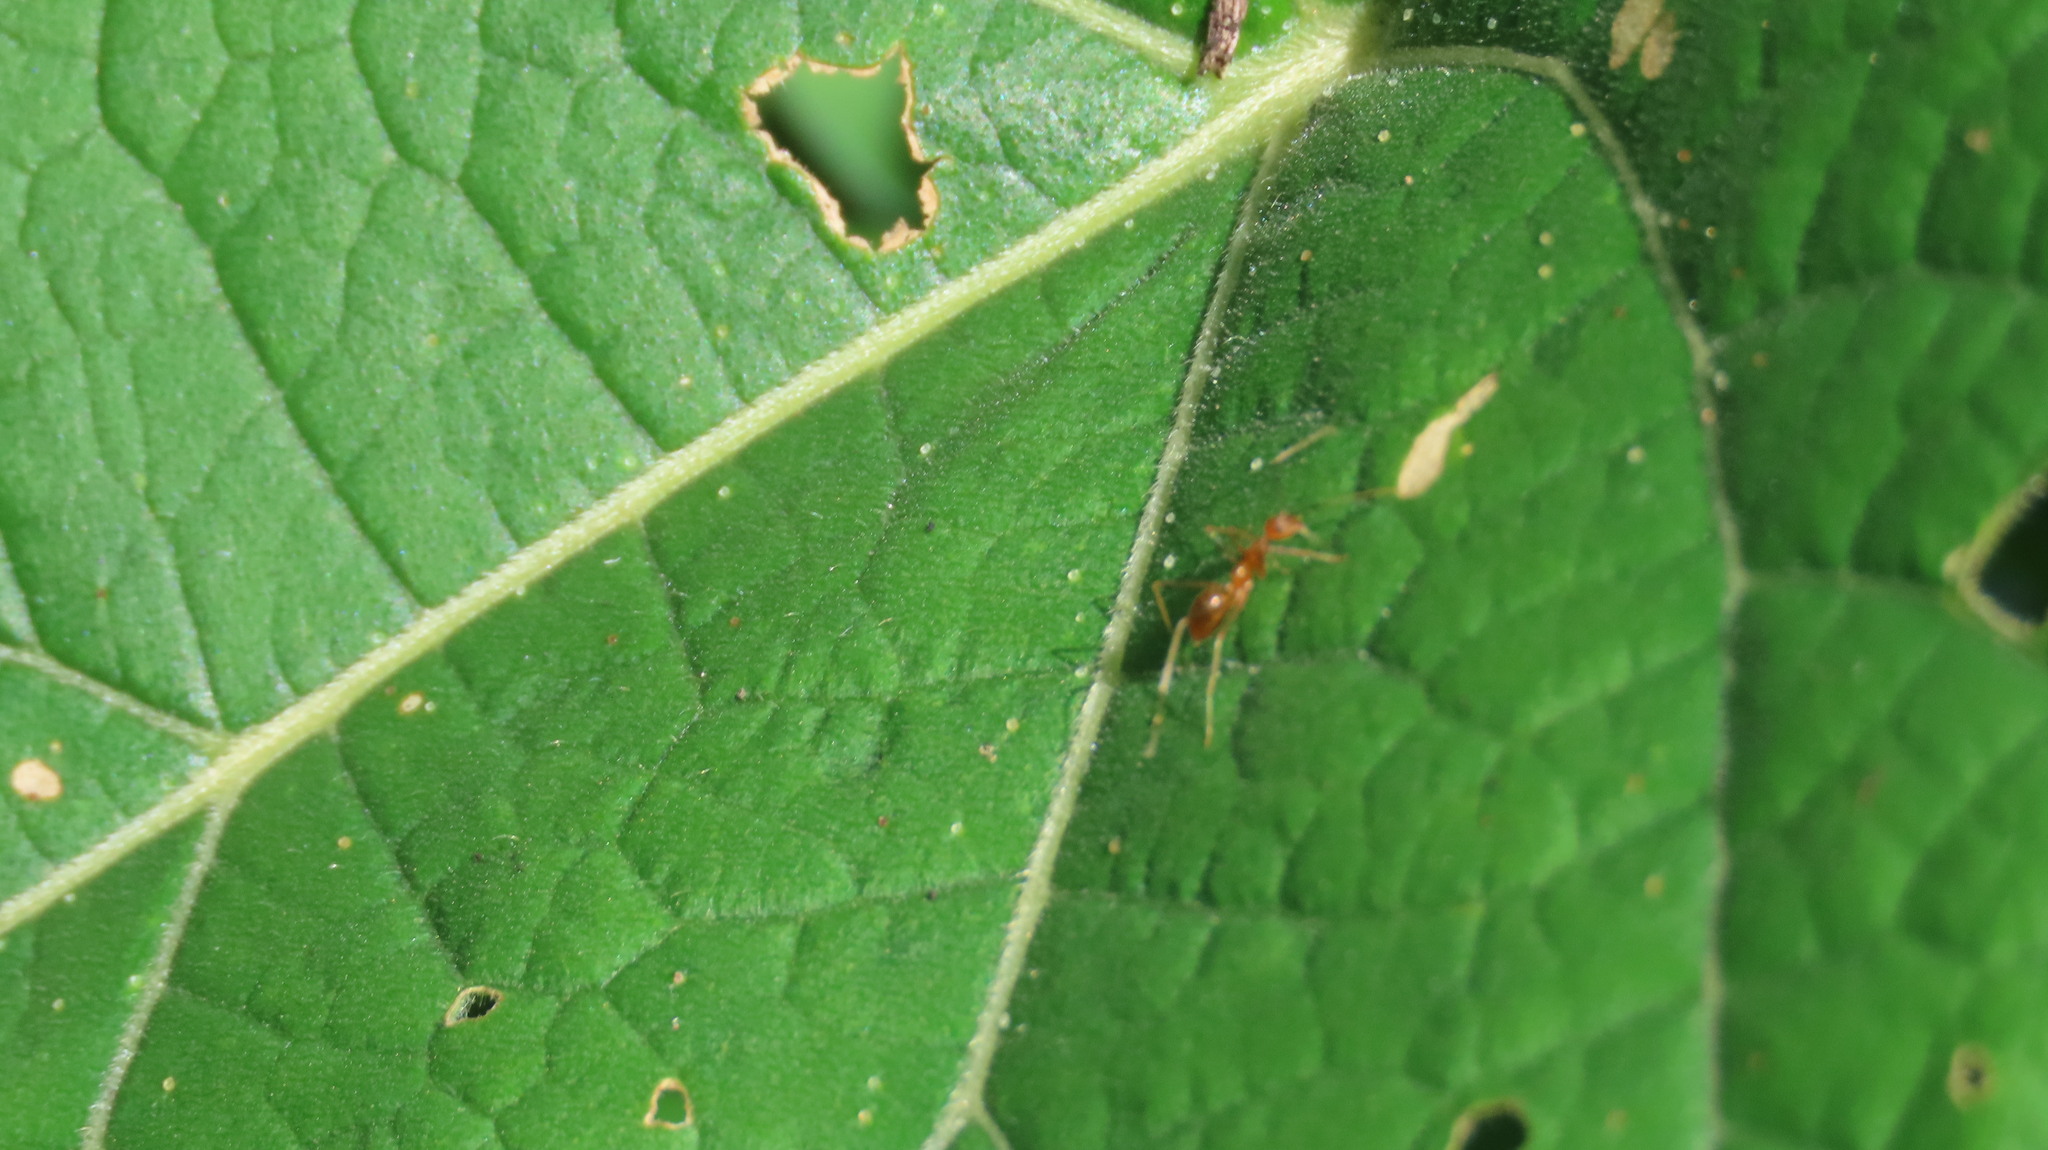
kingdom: Animalia
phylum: Arthropoda
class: Insecta
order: Hymenoptera
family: Formicidae
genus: Anoplolepis
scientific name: Anoplolepis gracilipes
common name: Ant
